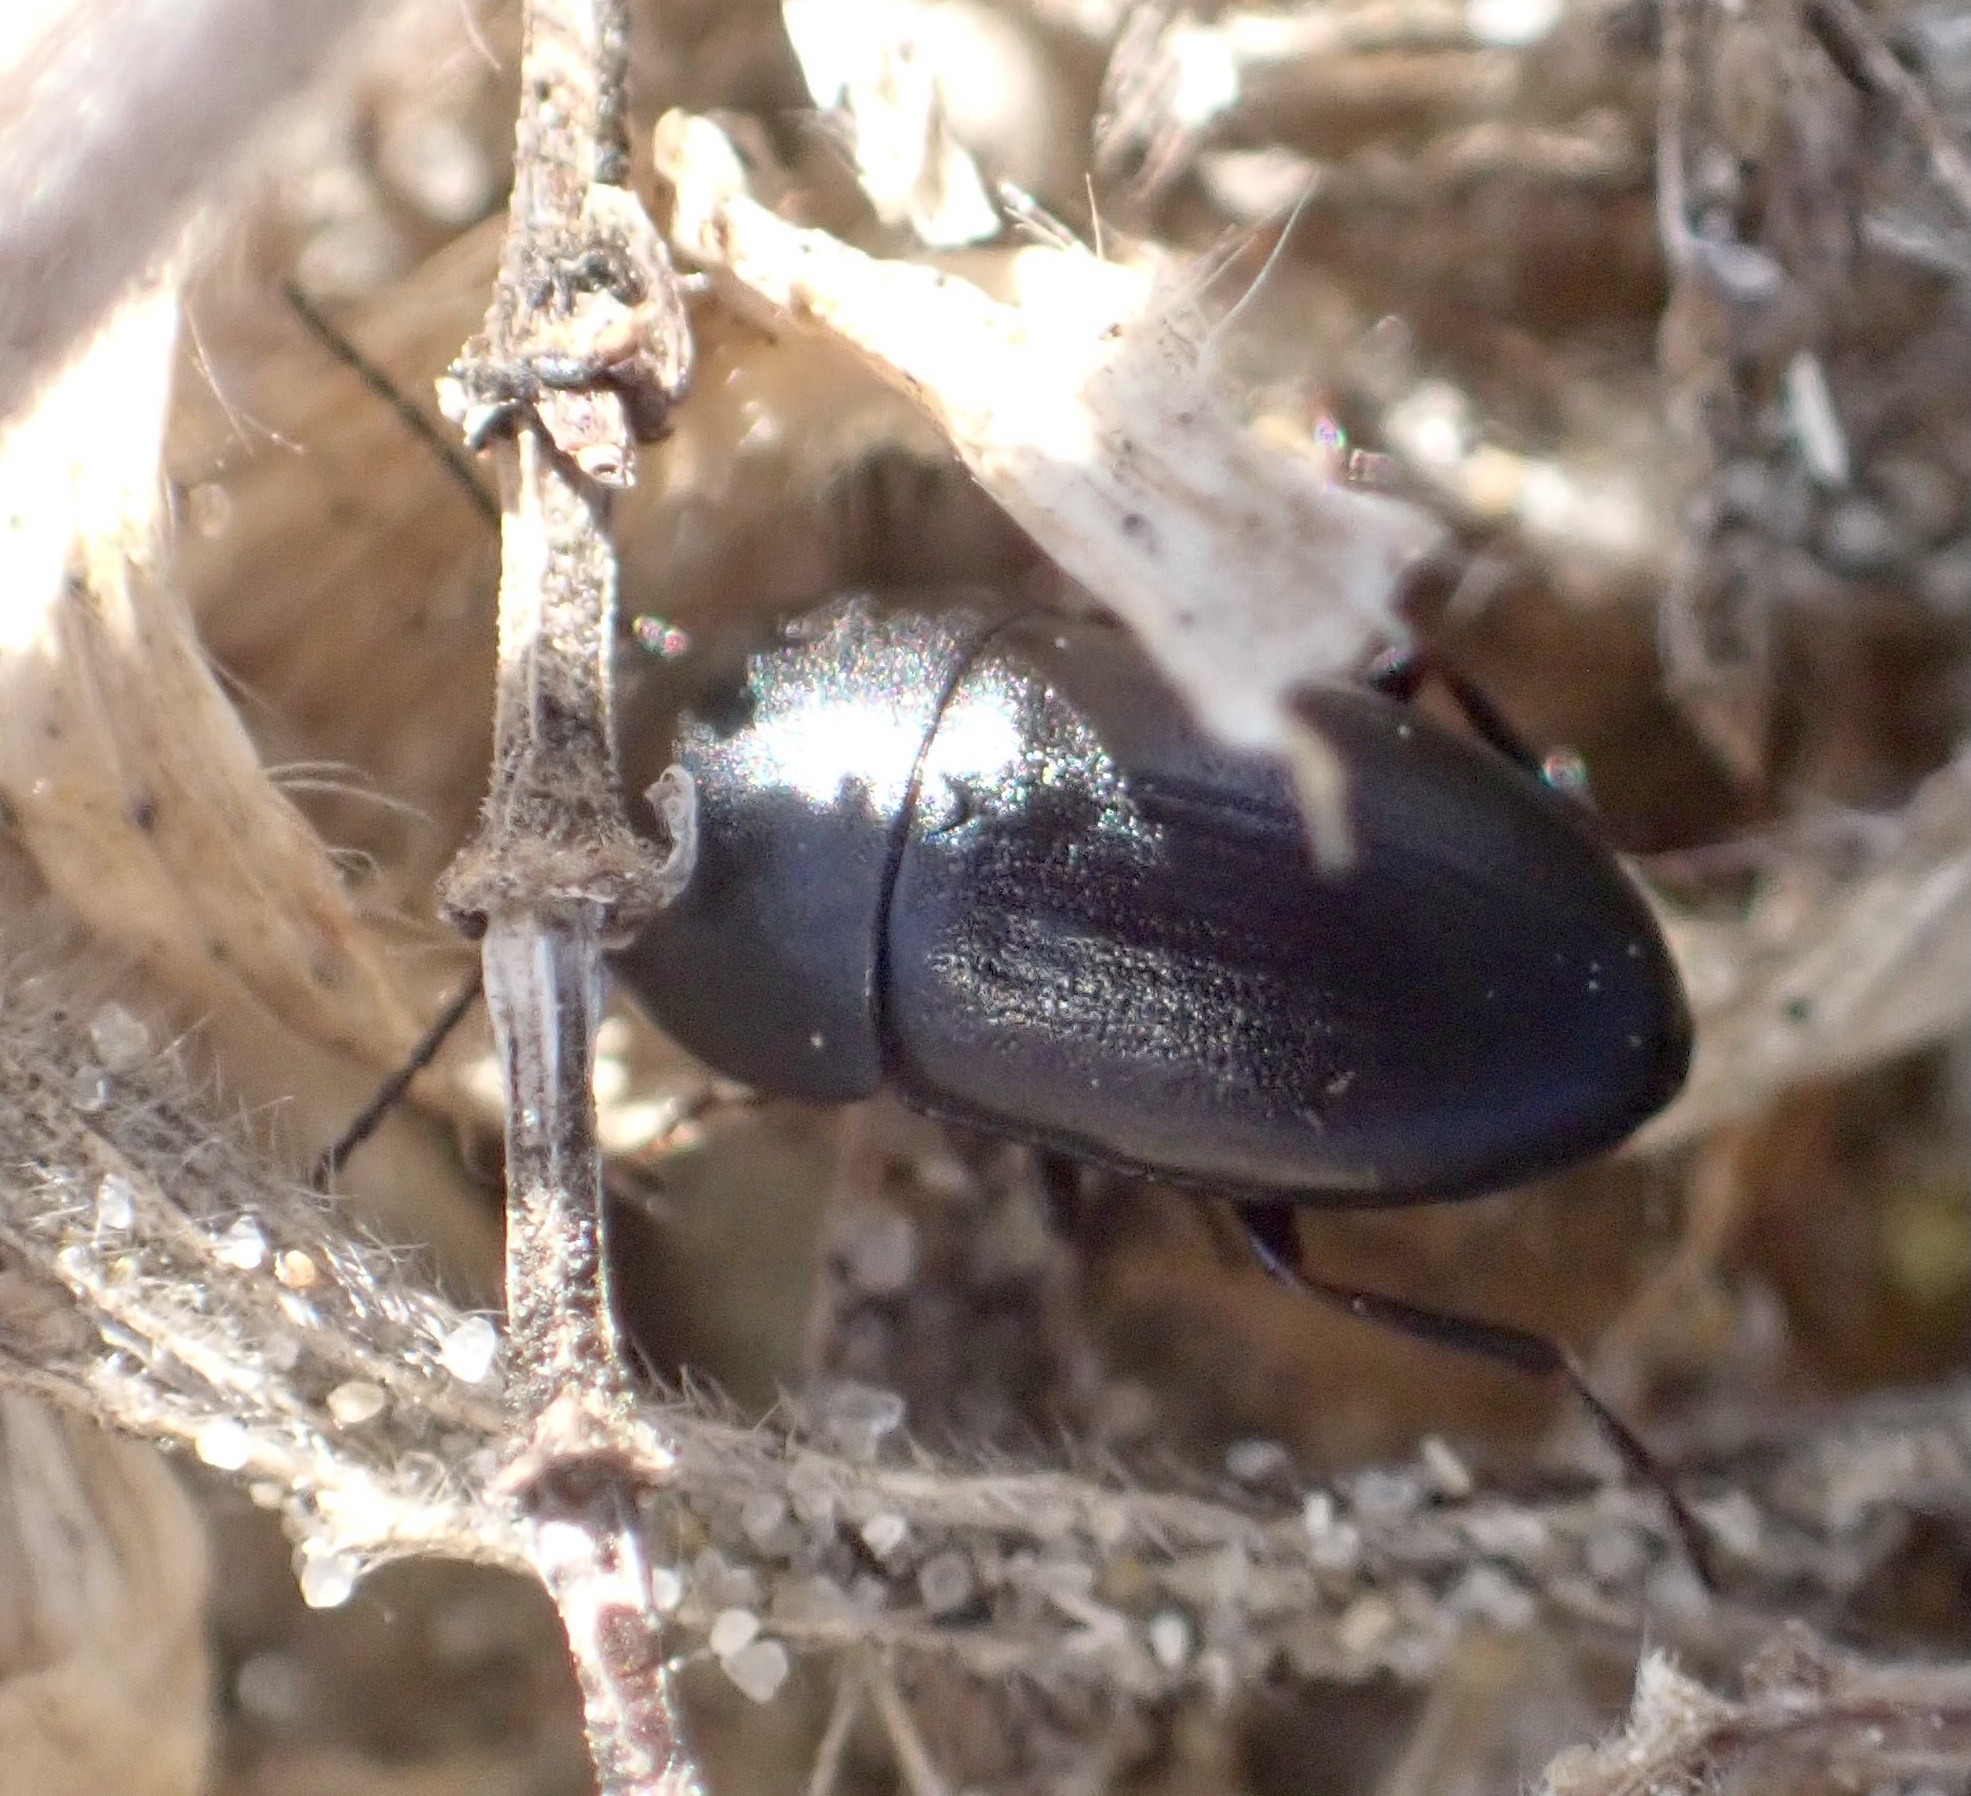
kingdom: Animalia
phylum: Arthropoda
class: Insecta
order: Coleoptera
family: Tenebrionidae
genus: Crypticus
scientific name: Crypticus quisquilius
